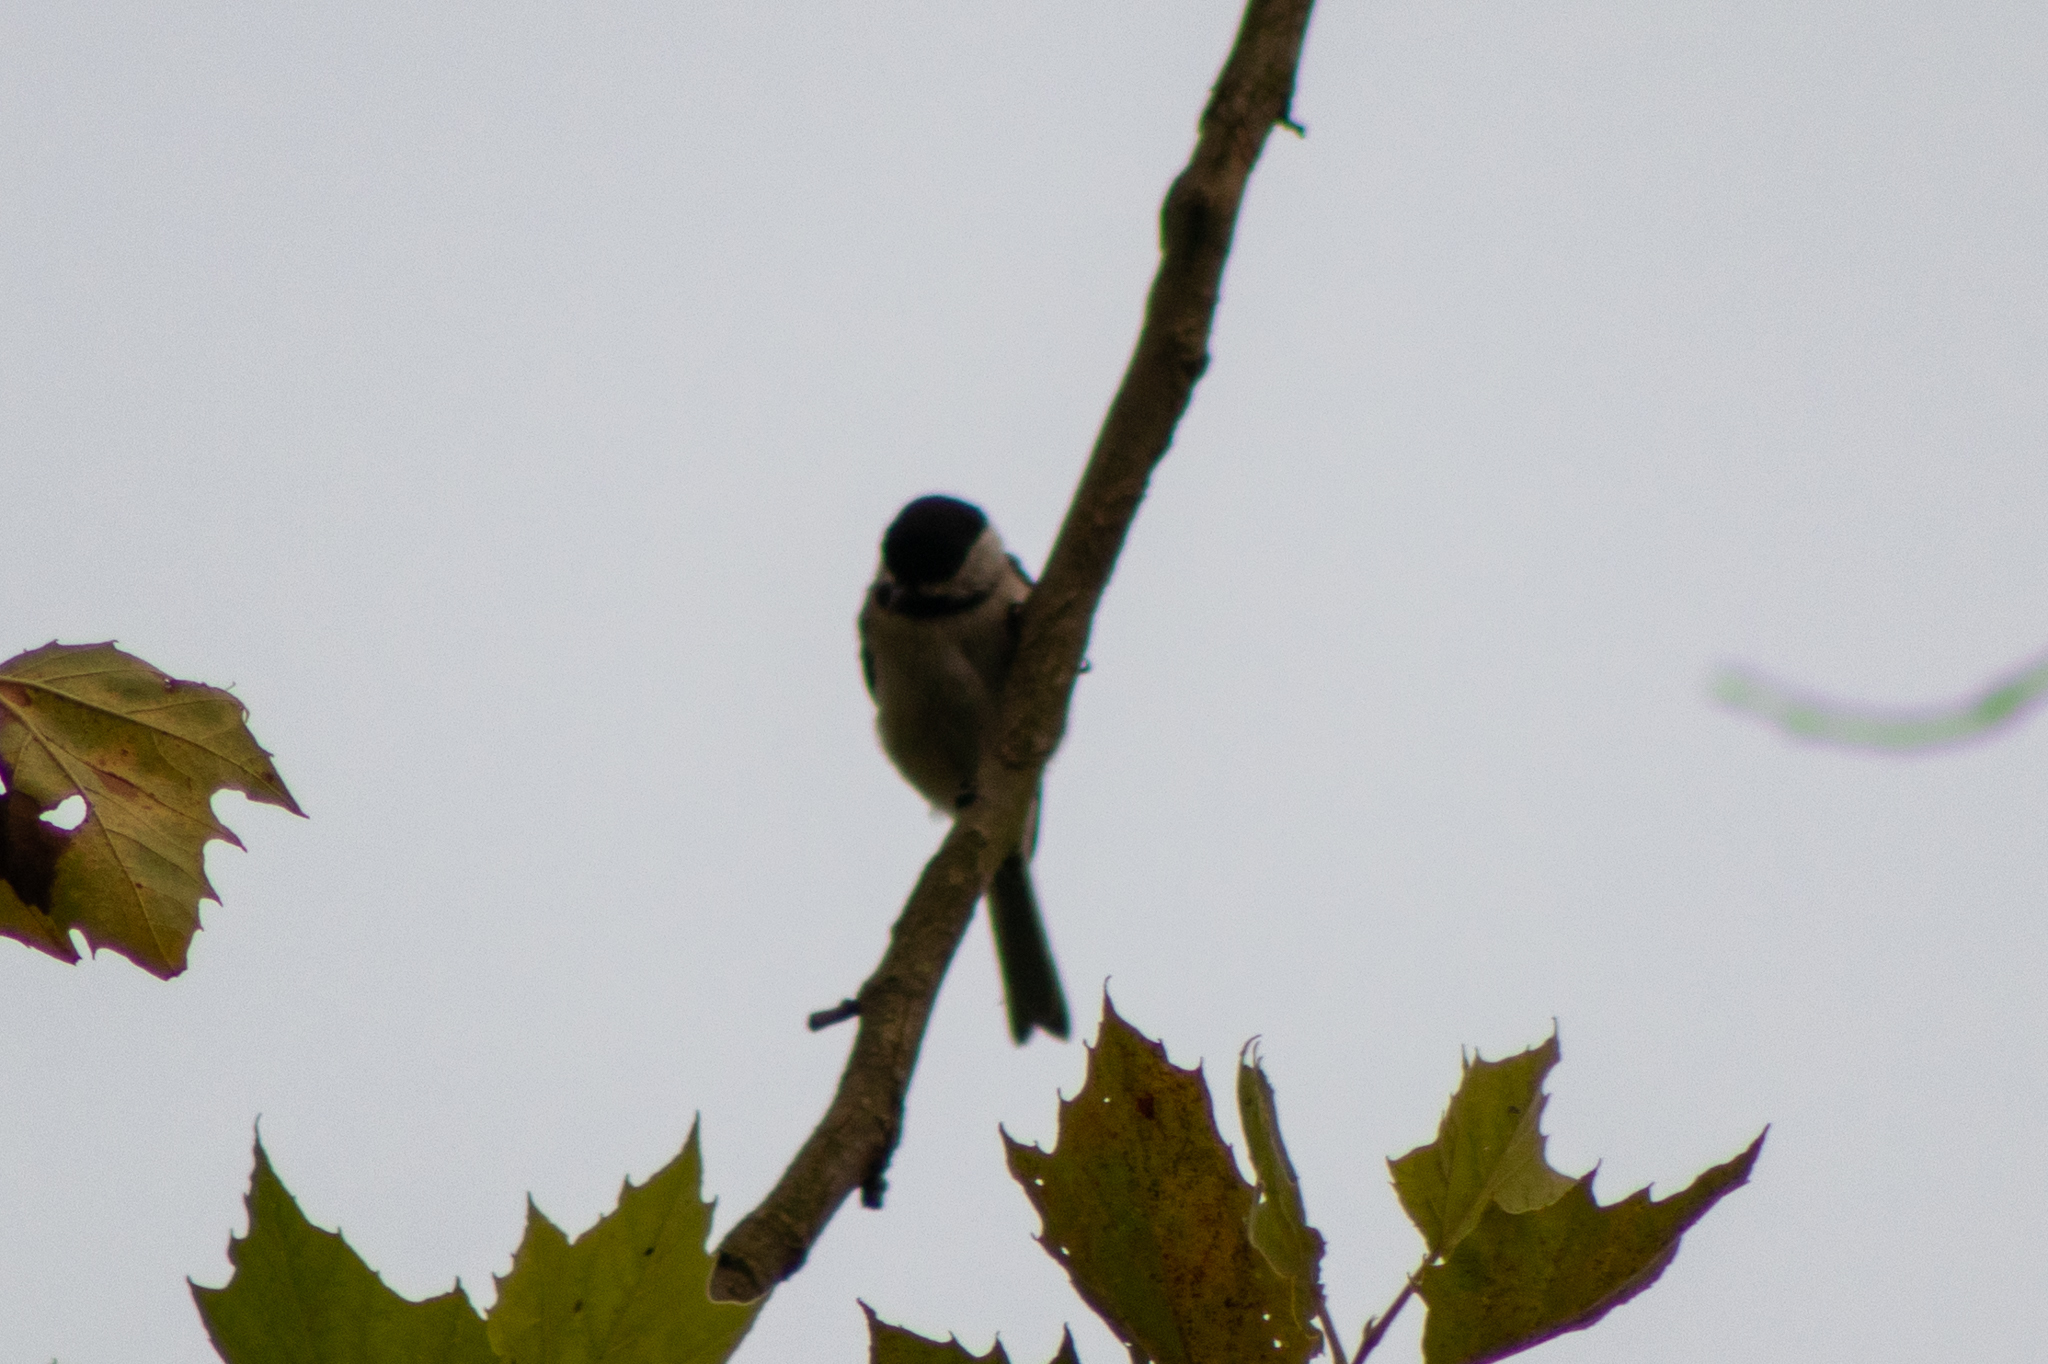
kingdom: Animalia
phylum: Chordata
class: Aves
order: Passeriformes
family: Paridae
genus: Poecile
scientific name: Poecile carolinensis
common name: Carolina chickadee
